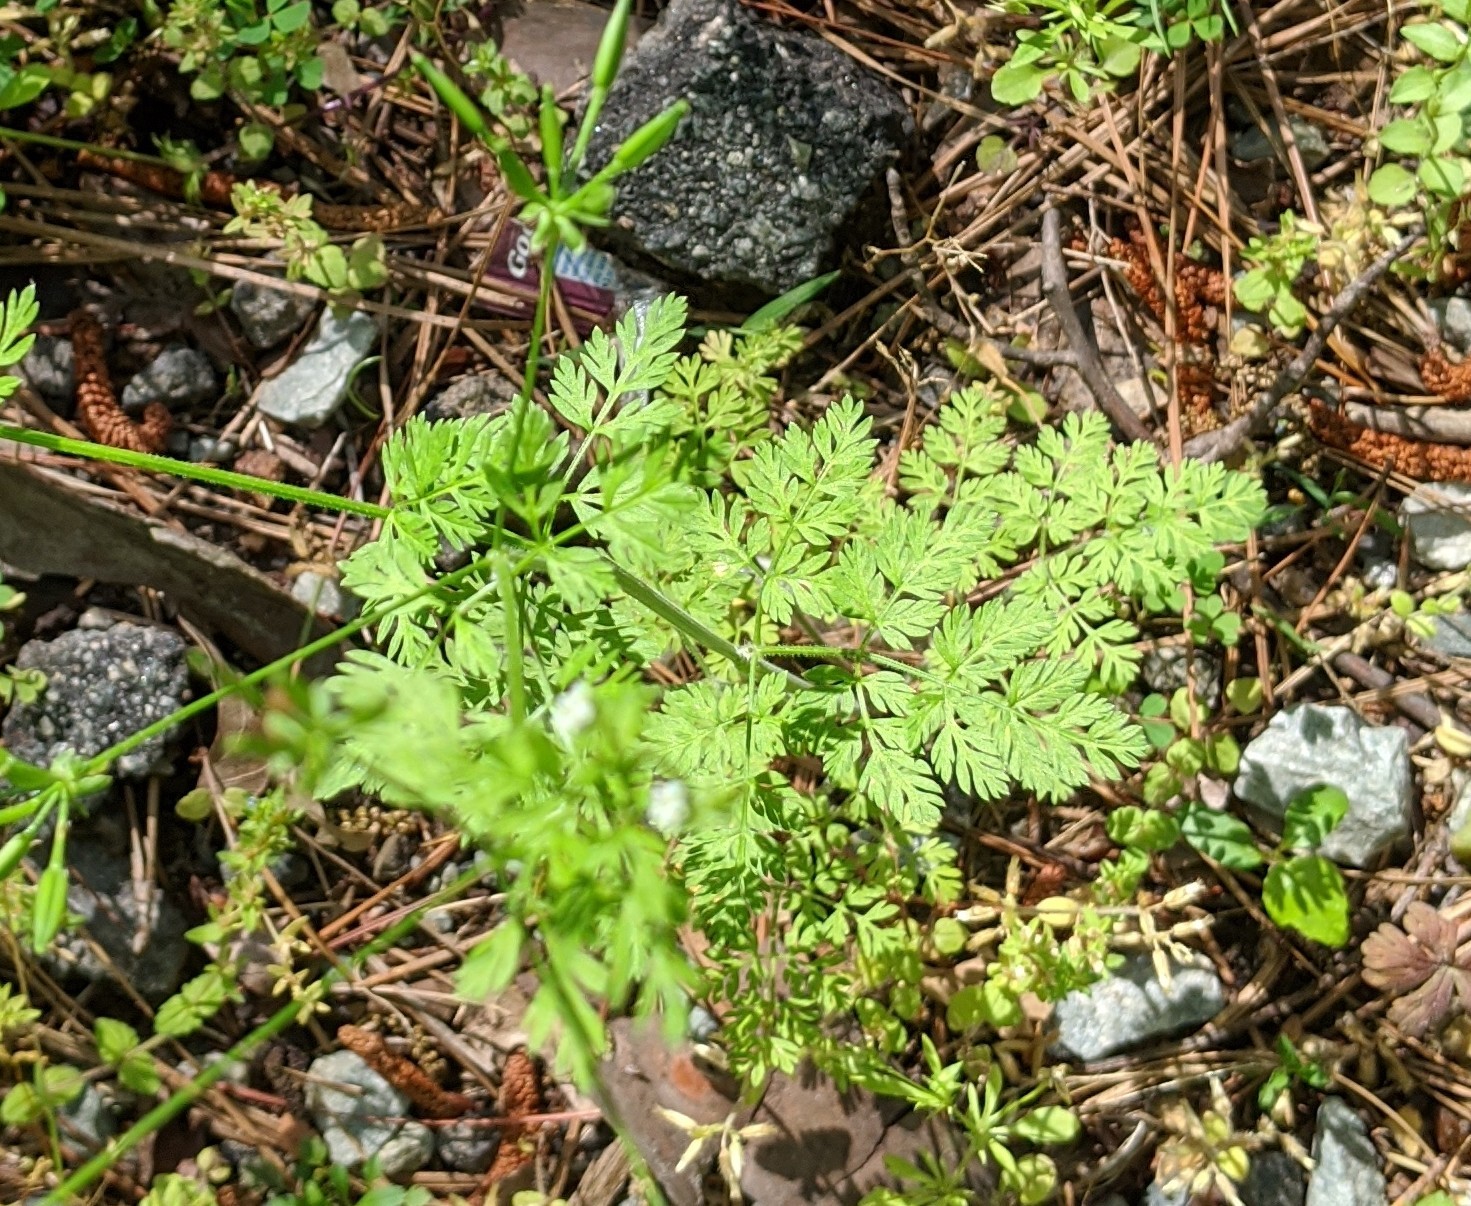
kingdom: Plantae
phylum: Tracheophyta
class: Magnoliopsida
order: Apiales
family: Apiaceae
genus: Chaerophyllum
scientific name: Chaerophyllum tainturieri
